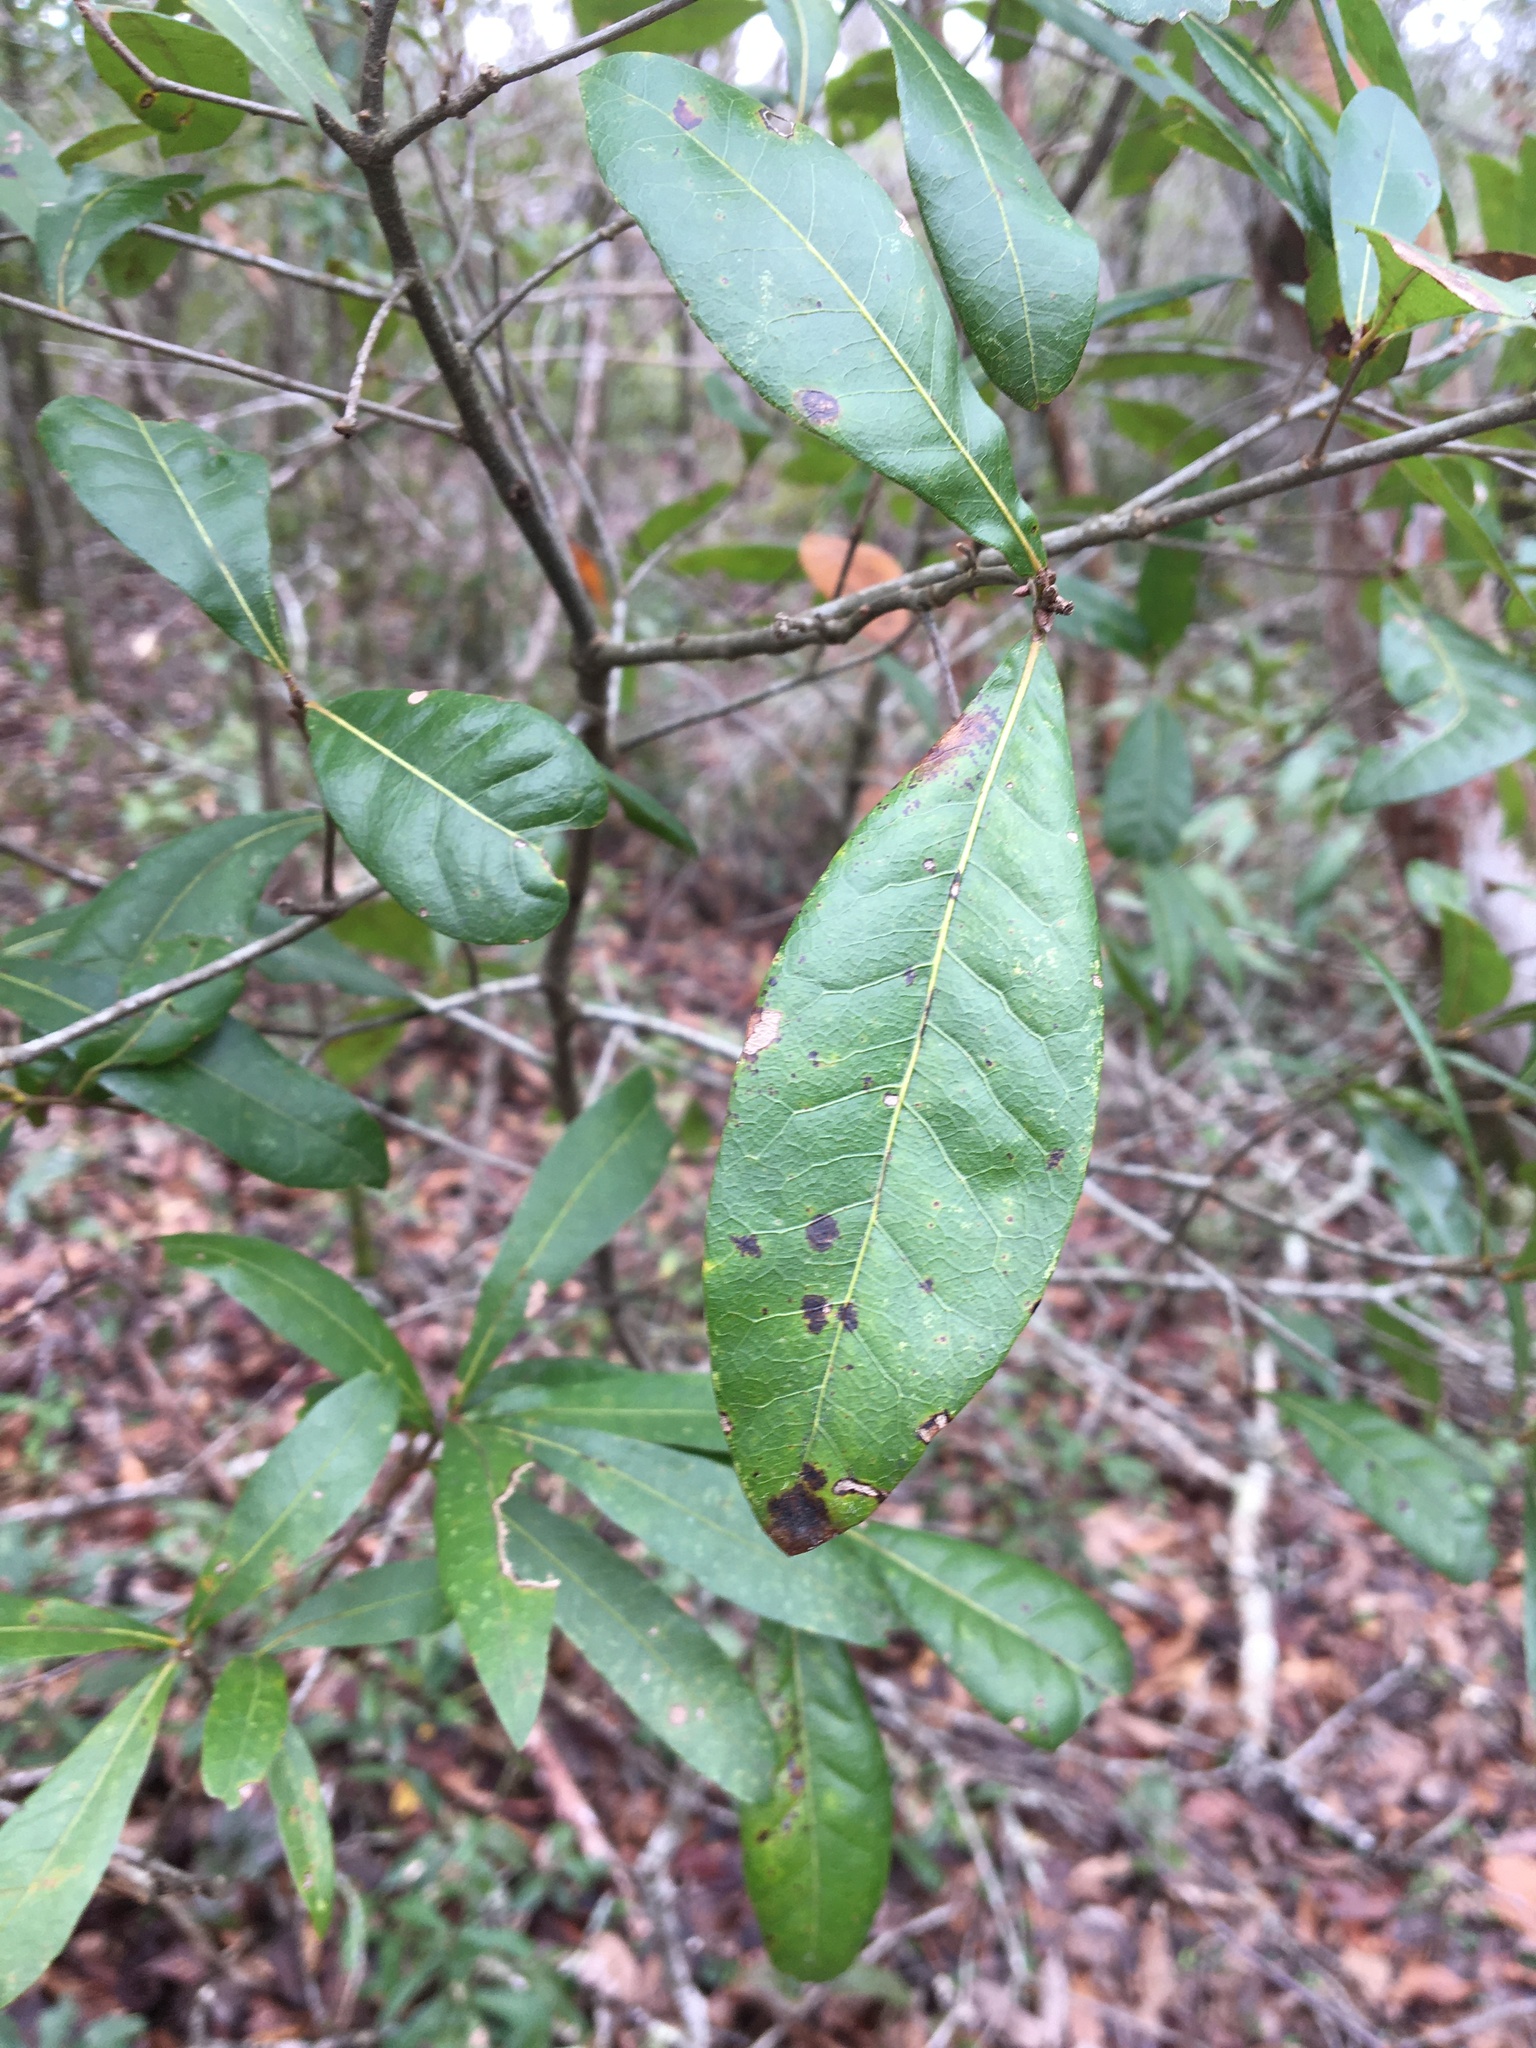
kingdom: Plantae
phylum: Tracheophyta
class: Magnoliopsida
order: Fagales
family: Fagaceae
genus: Quercus
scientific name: Quercus laurifolia
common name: Swamp laurel oak
